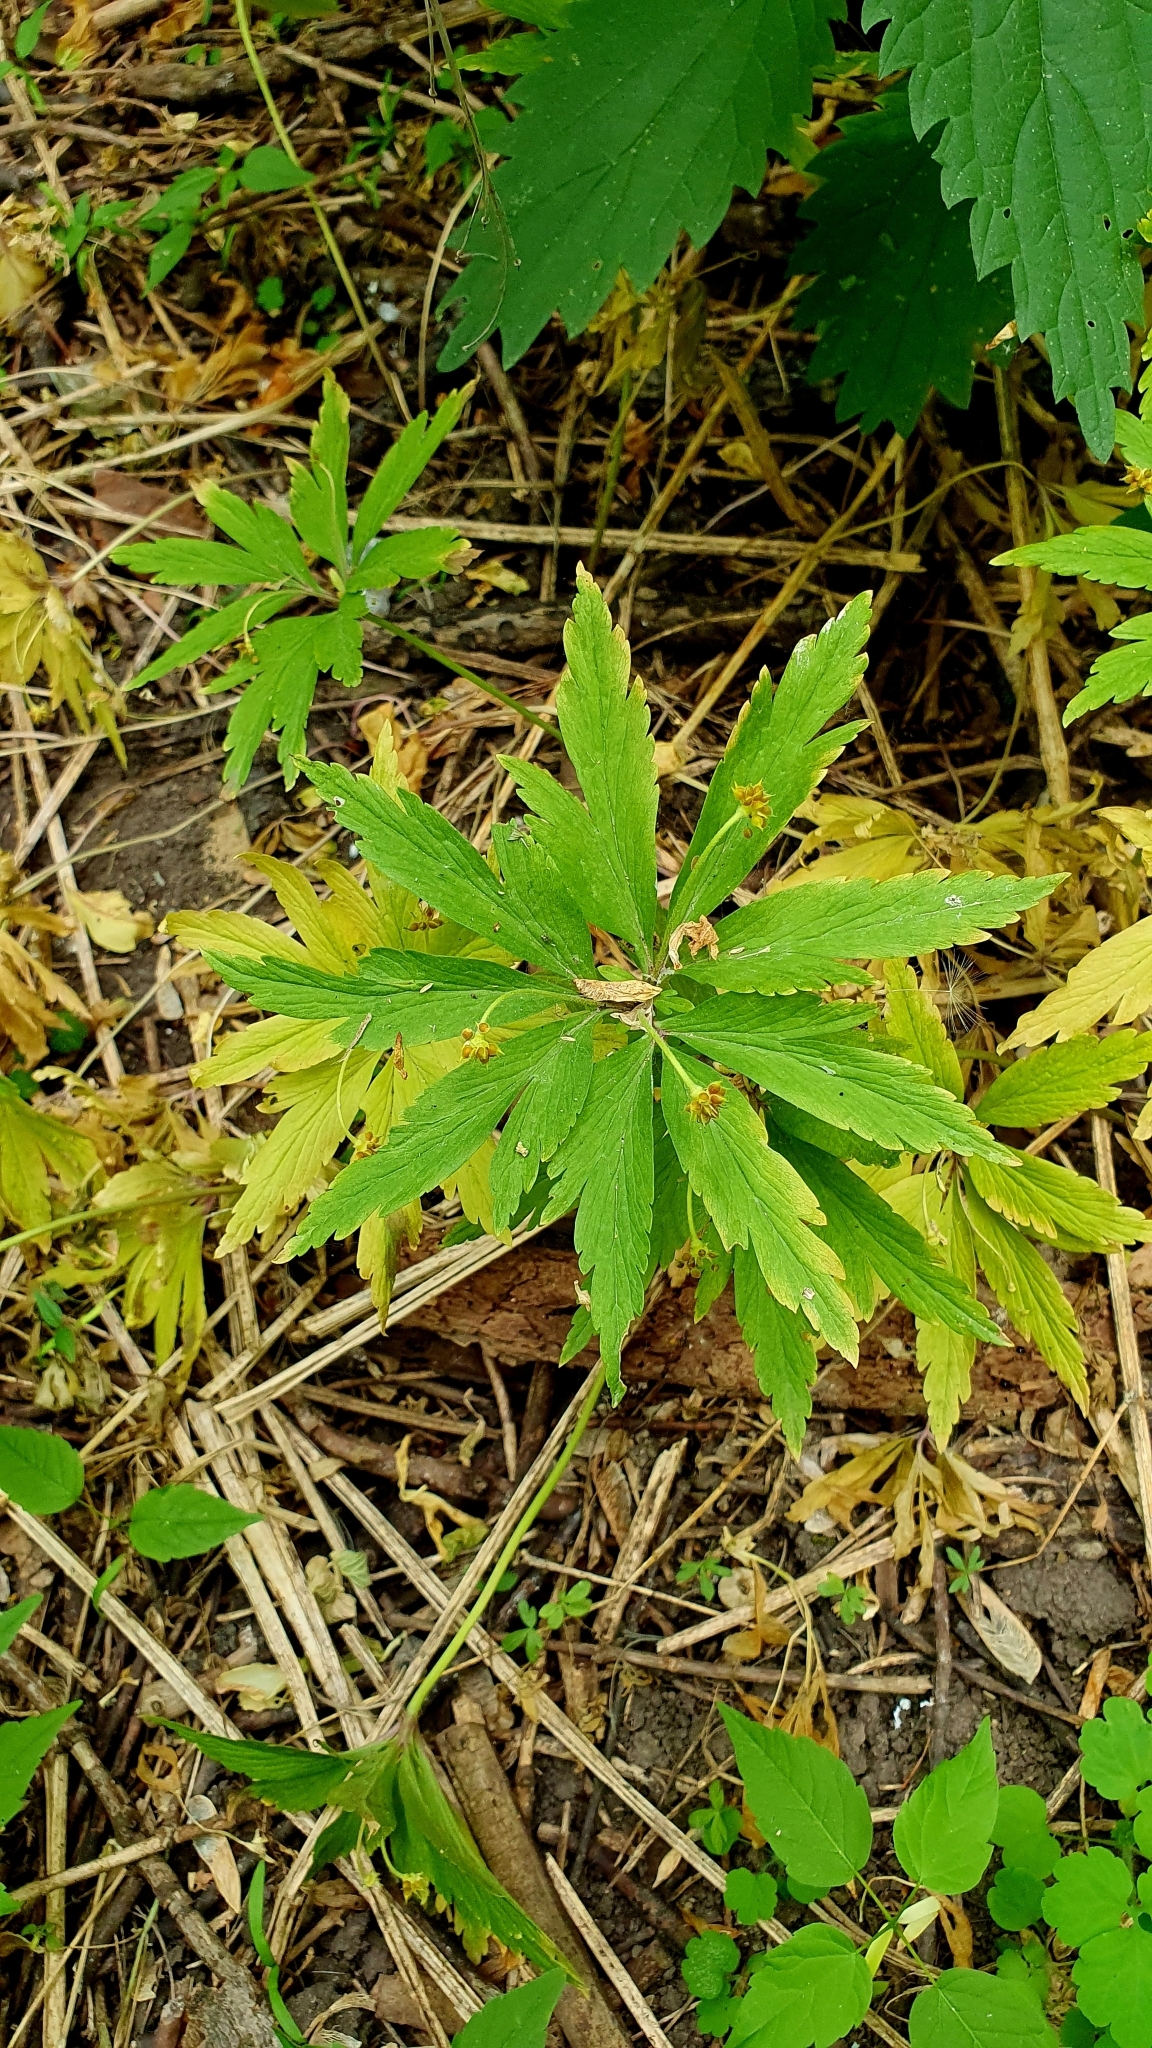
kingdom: Plantae
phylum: Tracheophyta
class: Magnoliopsida
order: Ranunculales
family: Ranunculaceae
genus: Anemone
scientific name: Anemone ranunculoides
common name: Yellow anemone
